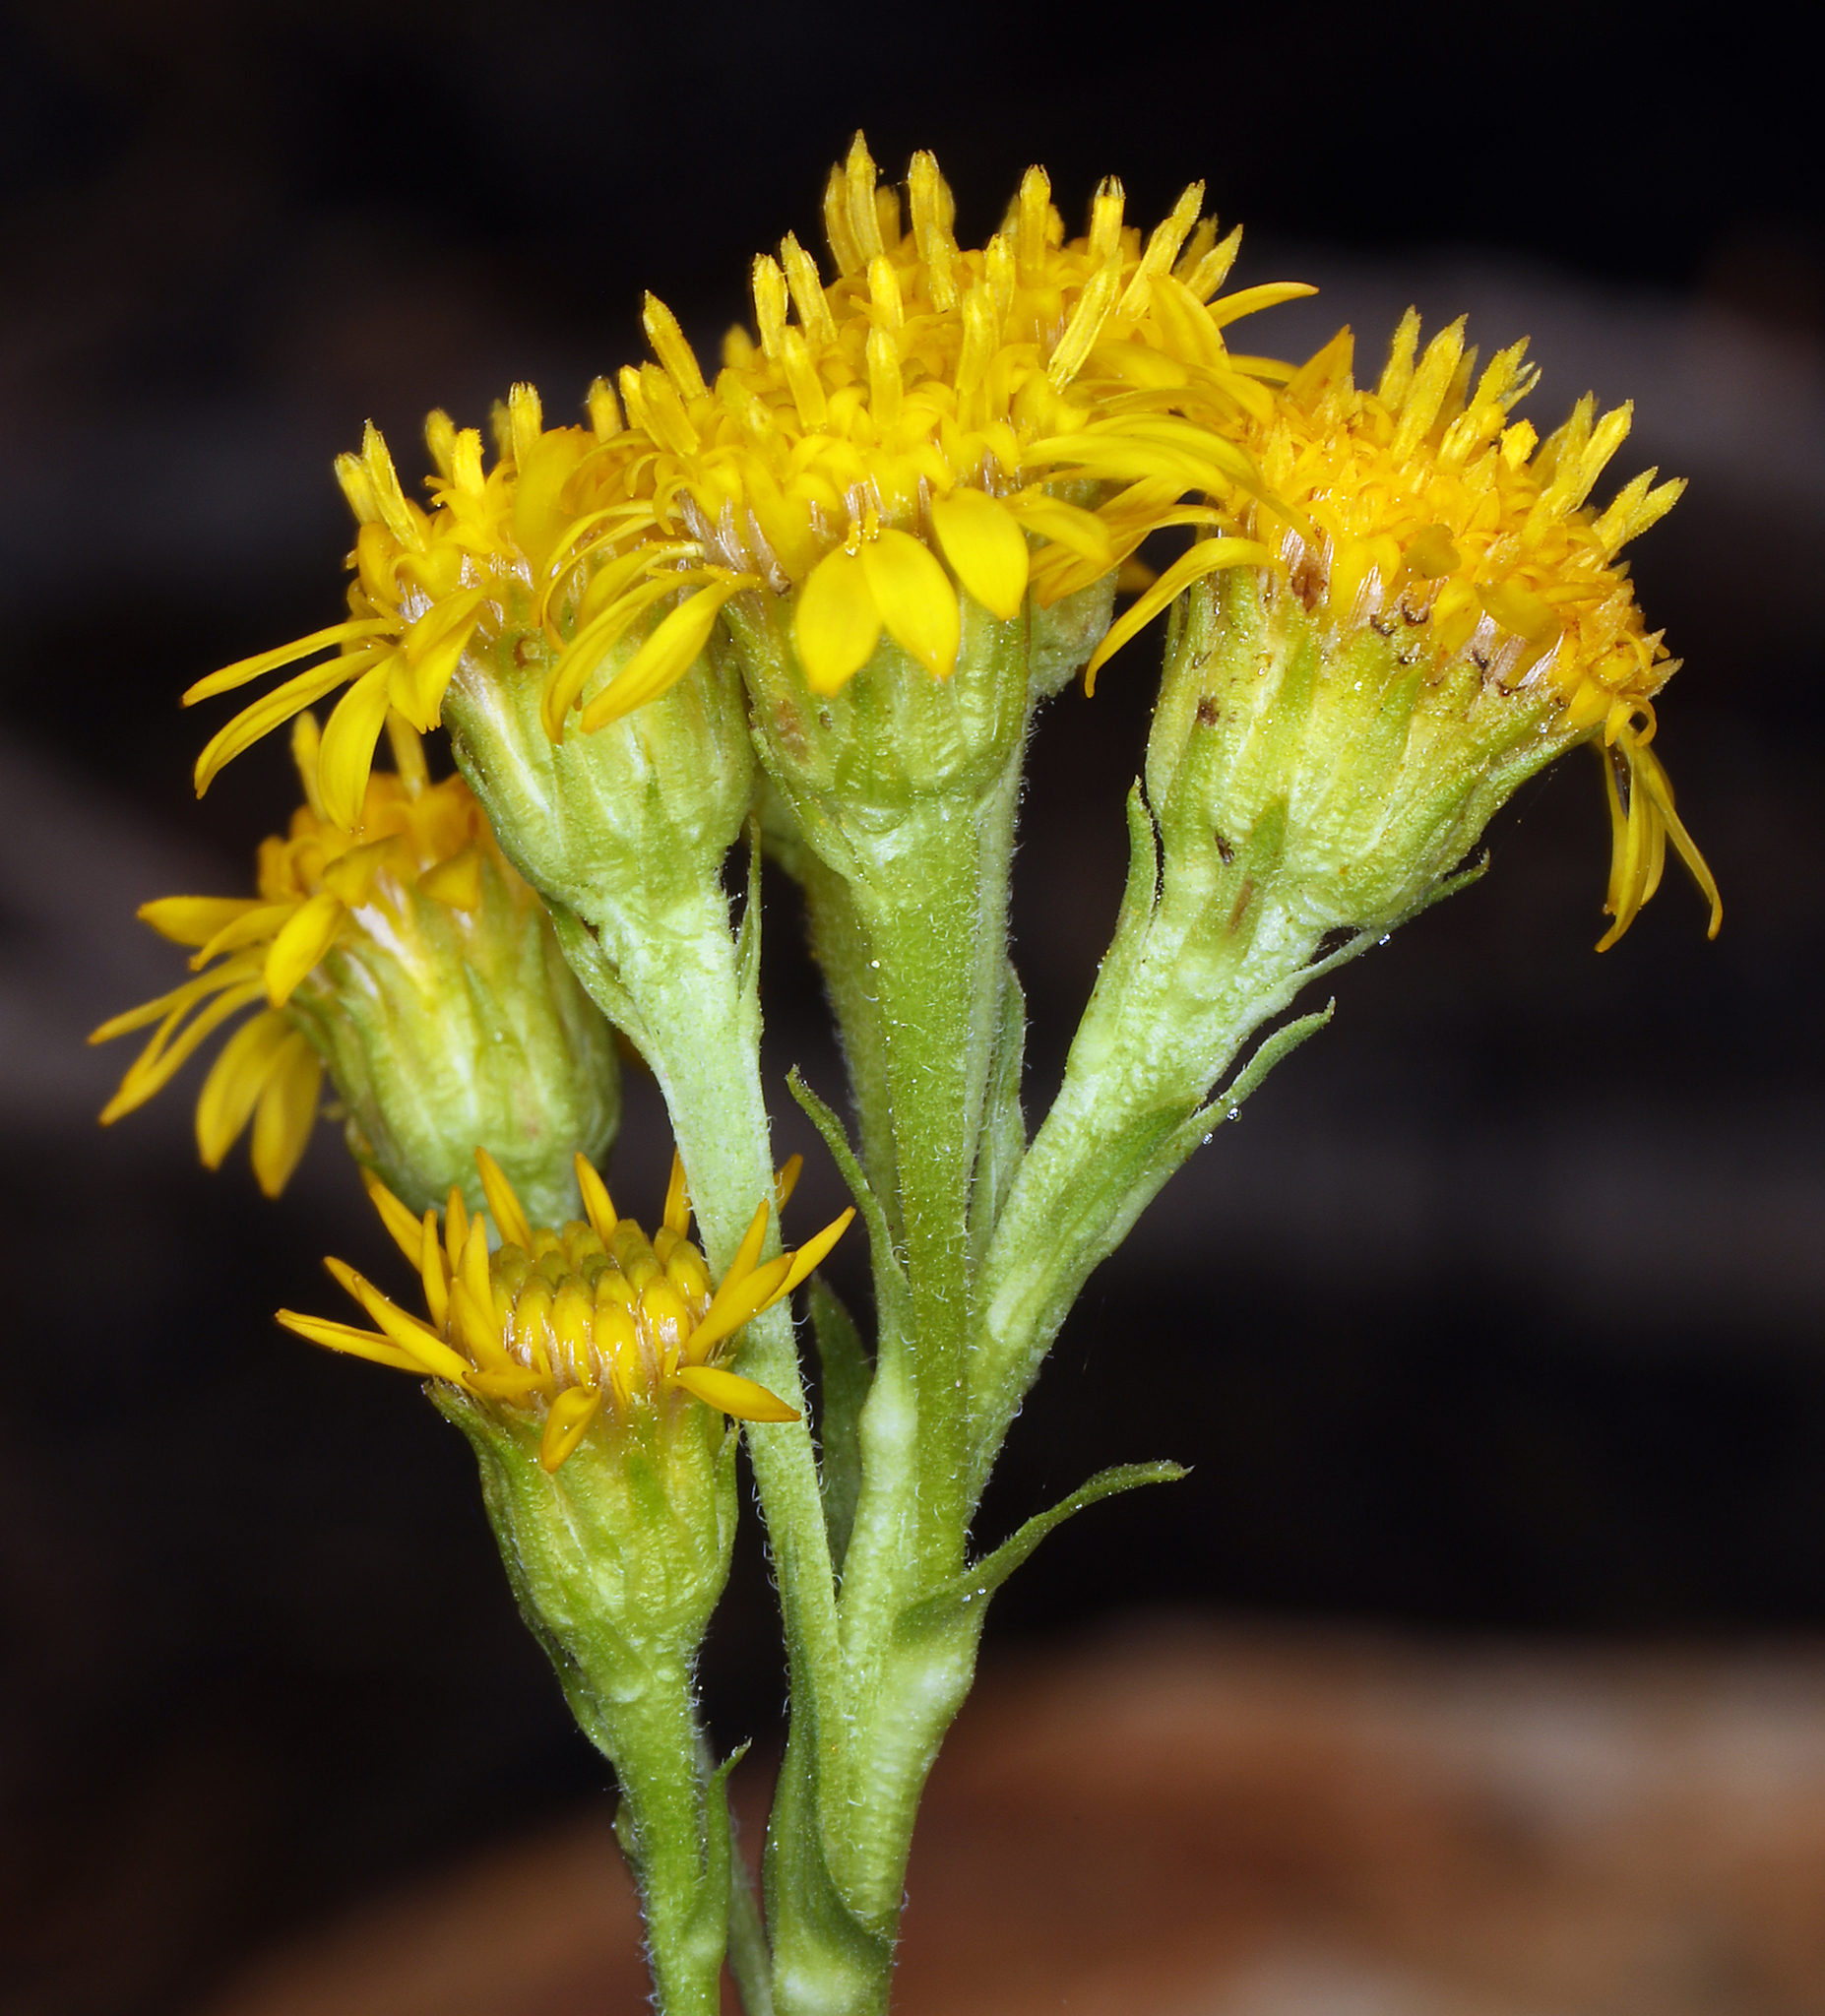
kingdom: Plantae
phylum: Tracheophyta
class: Magnoliopsida
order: Asterales
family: Asteraceae
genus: Solidago
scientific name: Solidago multiradiata
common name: Northern goldenrod
